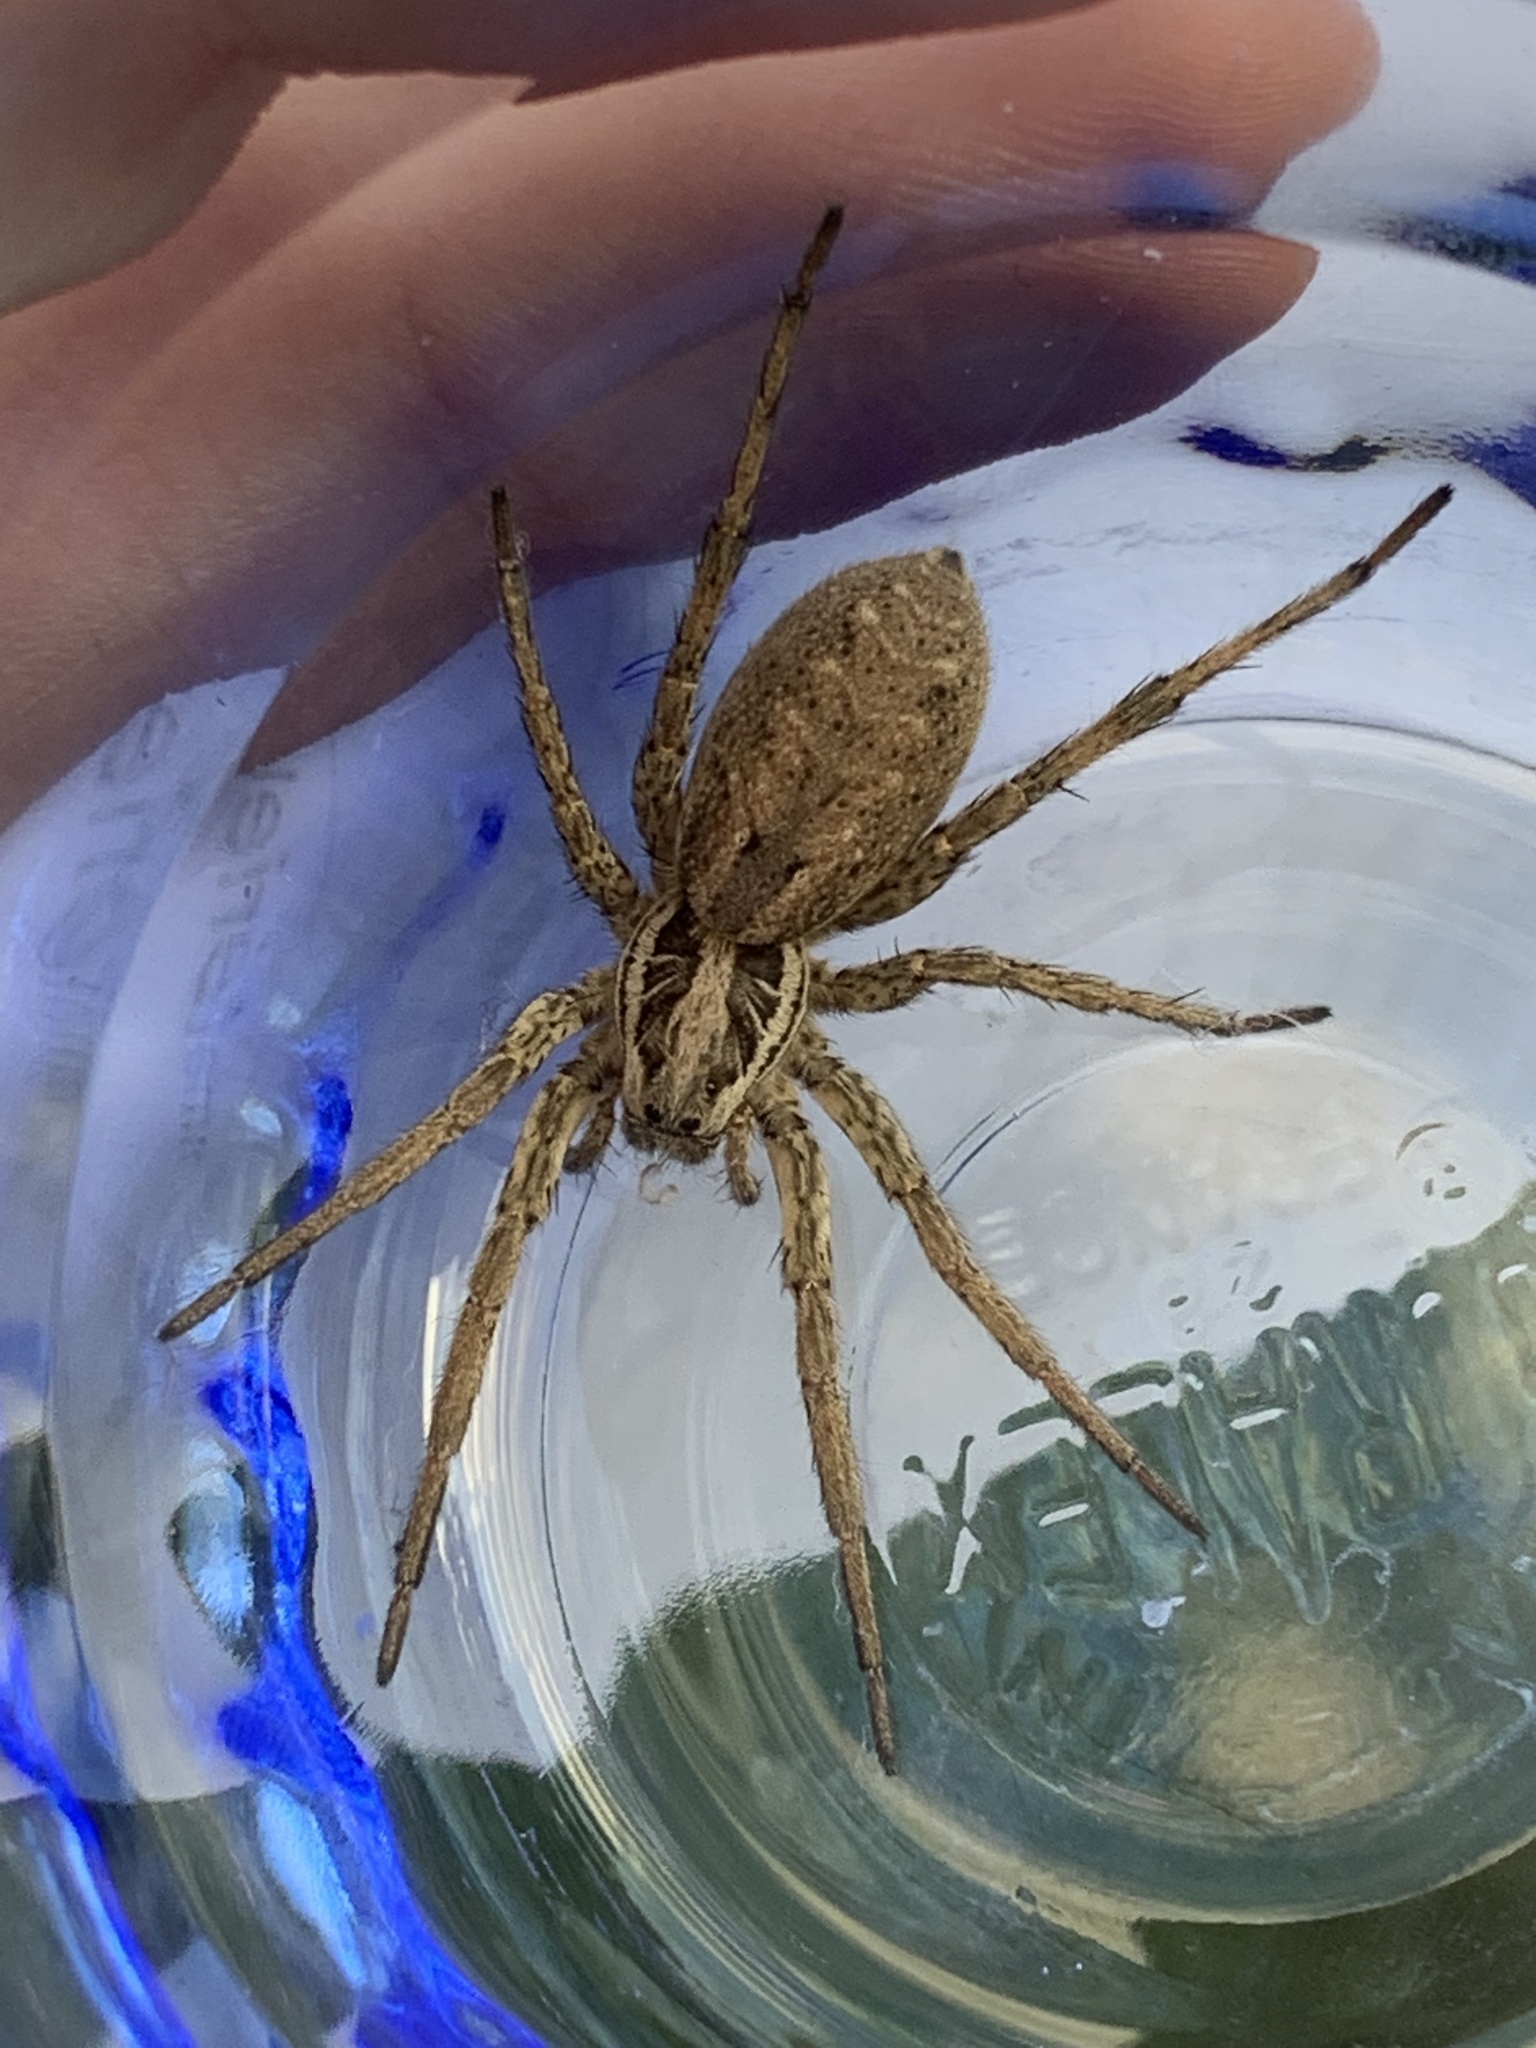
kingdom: Animalia
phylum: Arthropoda
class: Arachnida
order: Araneae
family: Lycosidae
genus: Hogna
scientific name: Hogna radiata
